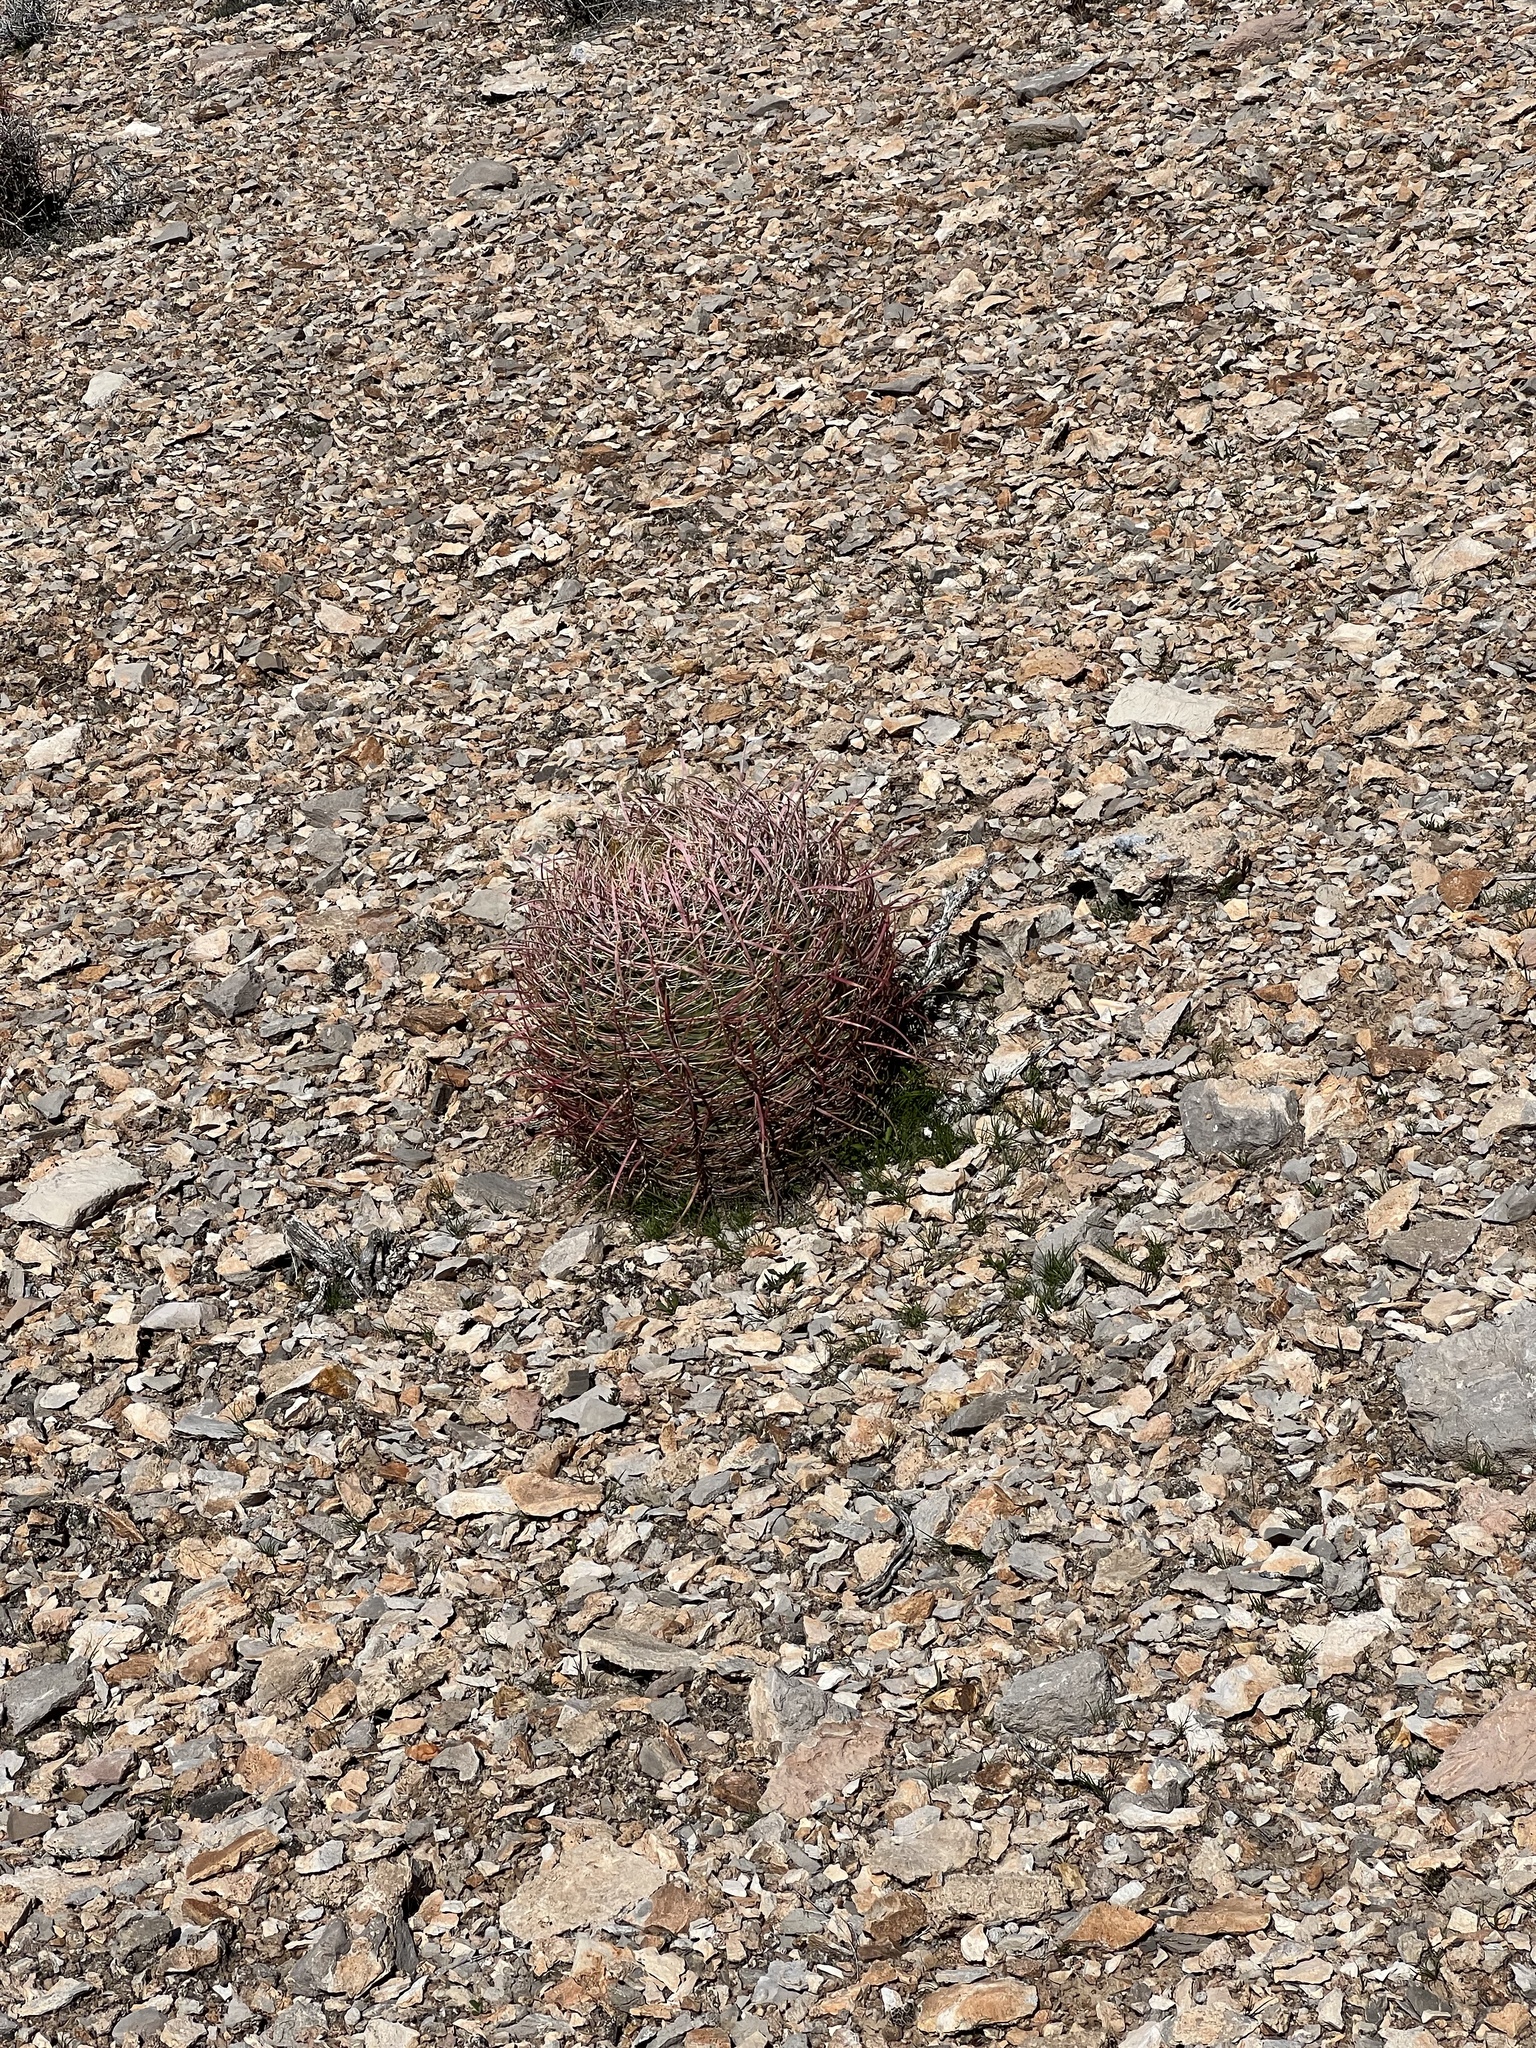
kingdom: Plantae
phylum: Tracheophyta
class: Magnoliopsida
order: Caryophyllales
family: Cactaceae
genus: Ferocactus
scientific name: Ferocactus cylindraceus
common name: California barrel cactus
